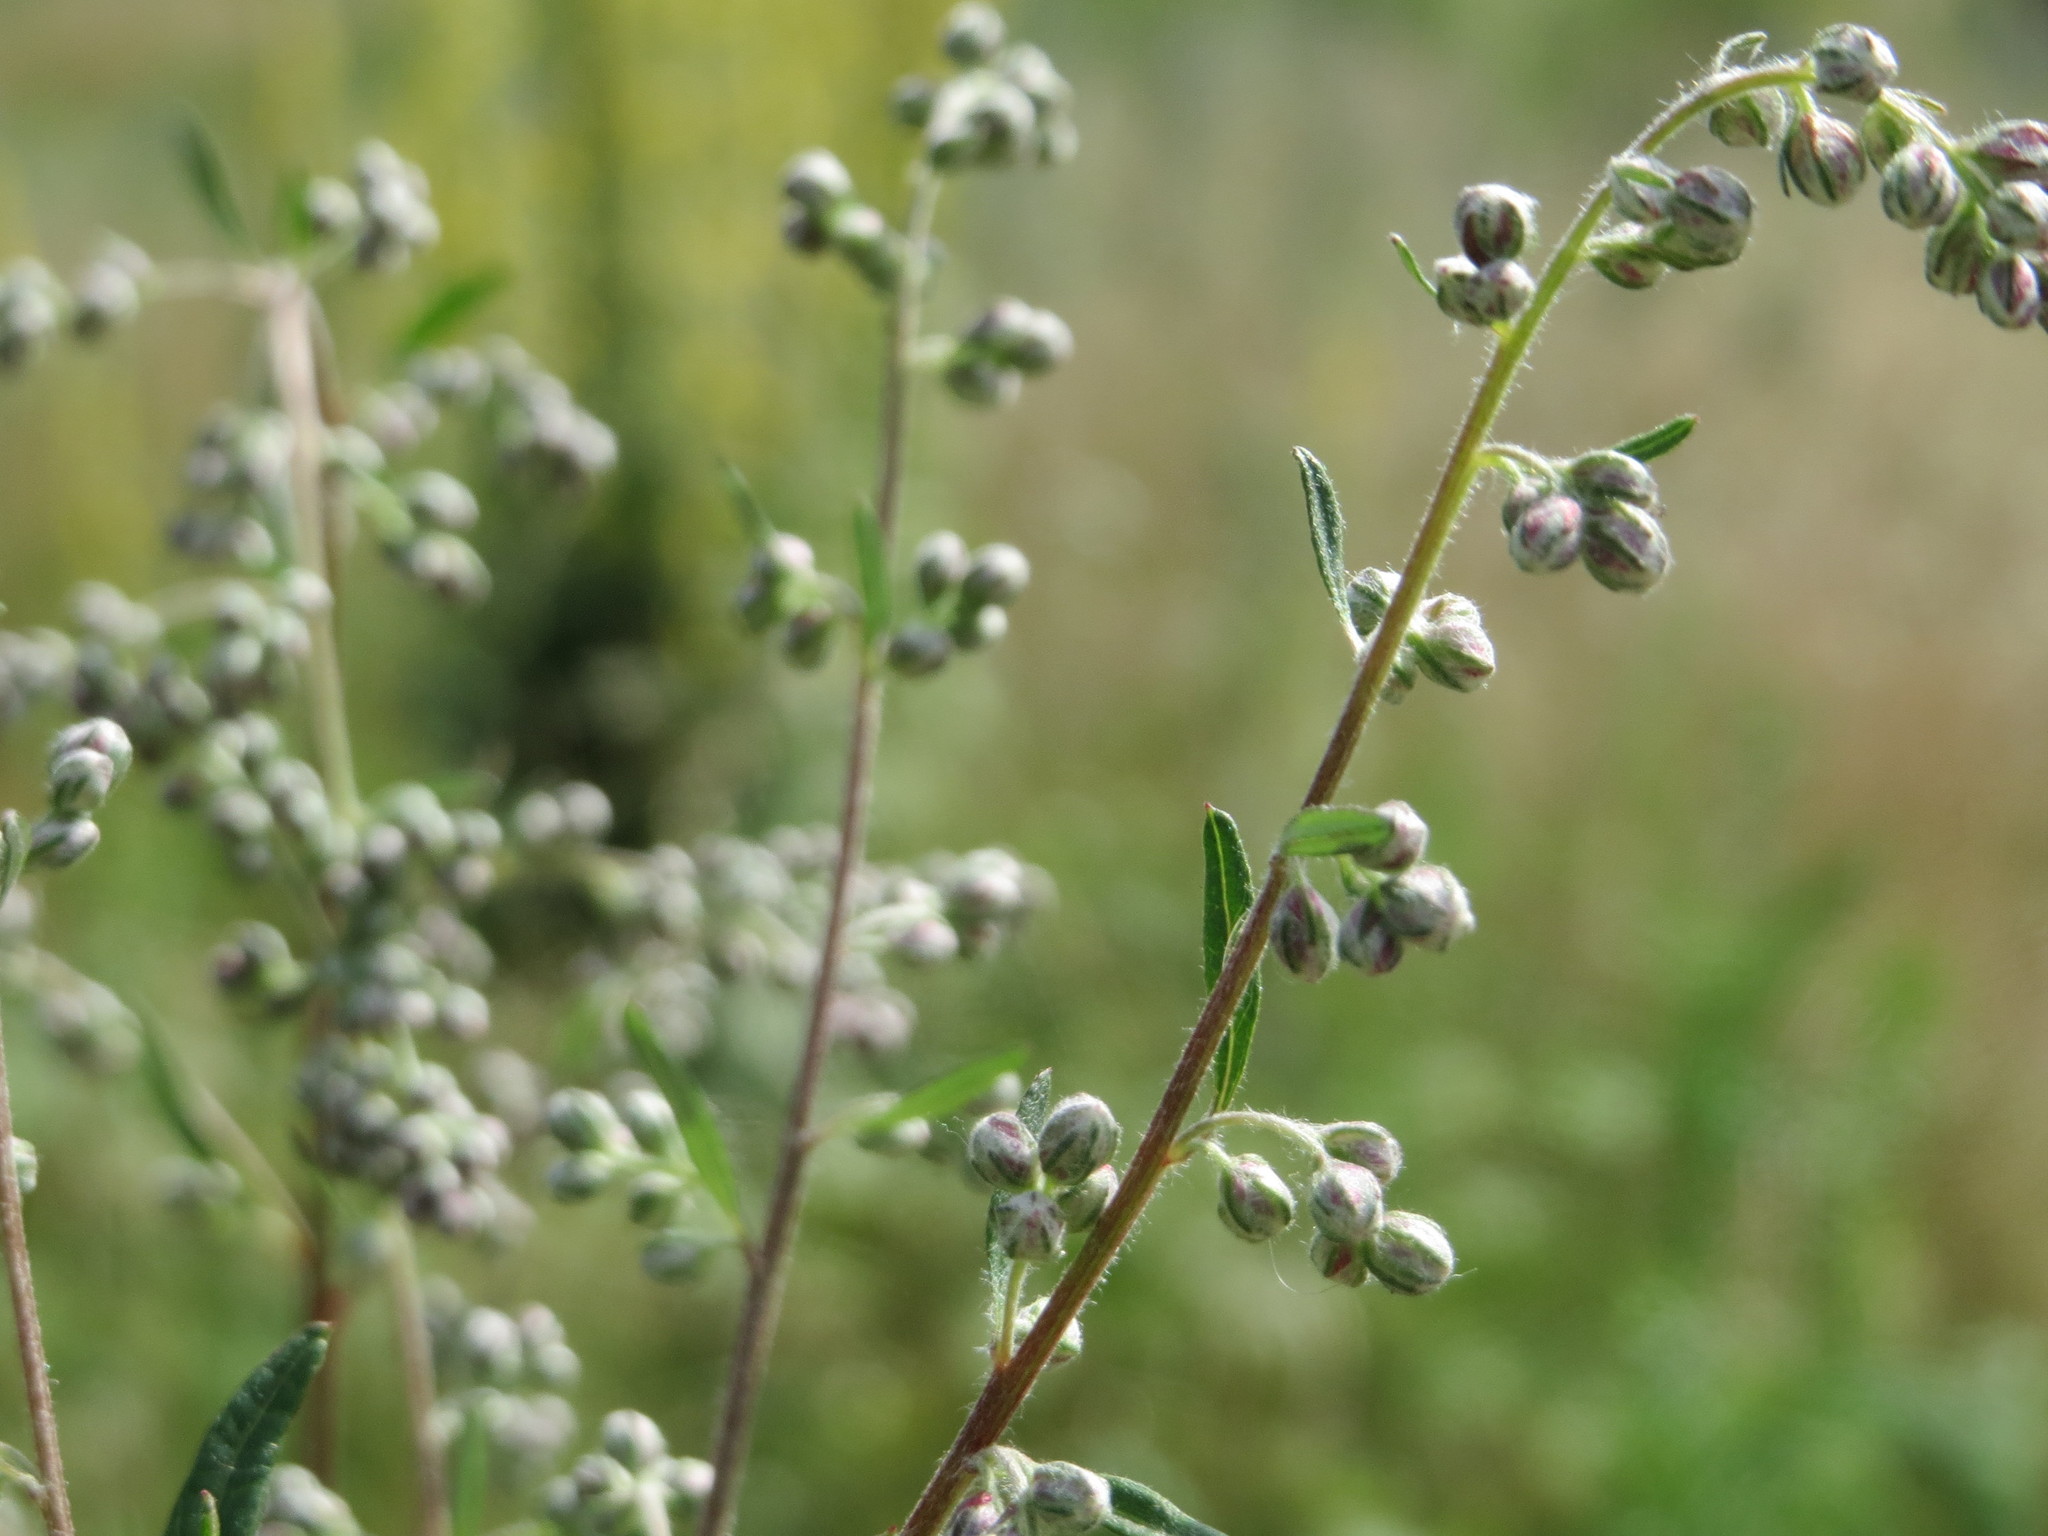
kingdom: Plantae
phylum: Tracheophyta
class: Magnoliopsida
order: Asterales
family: Asteraceae
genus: Artemisia
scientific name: Artemisia vulgaris
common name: Mugwort
